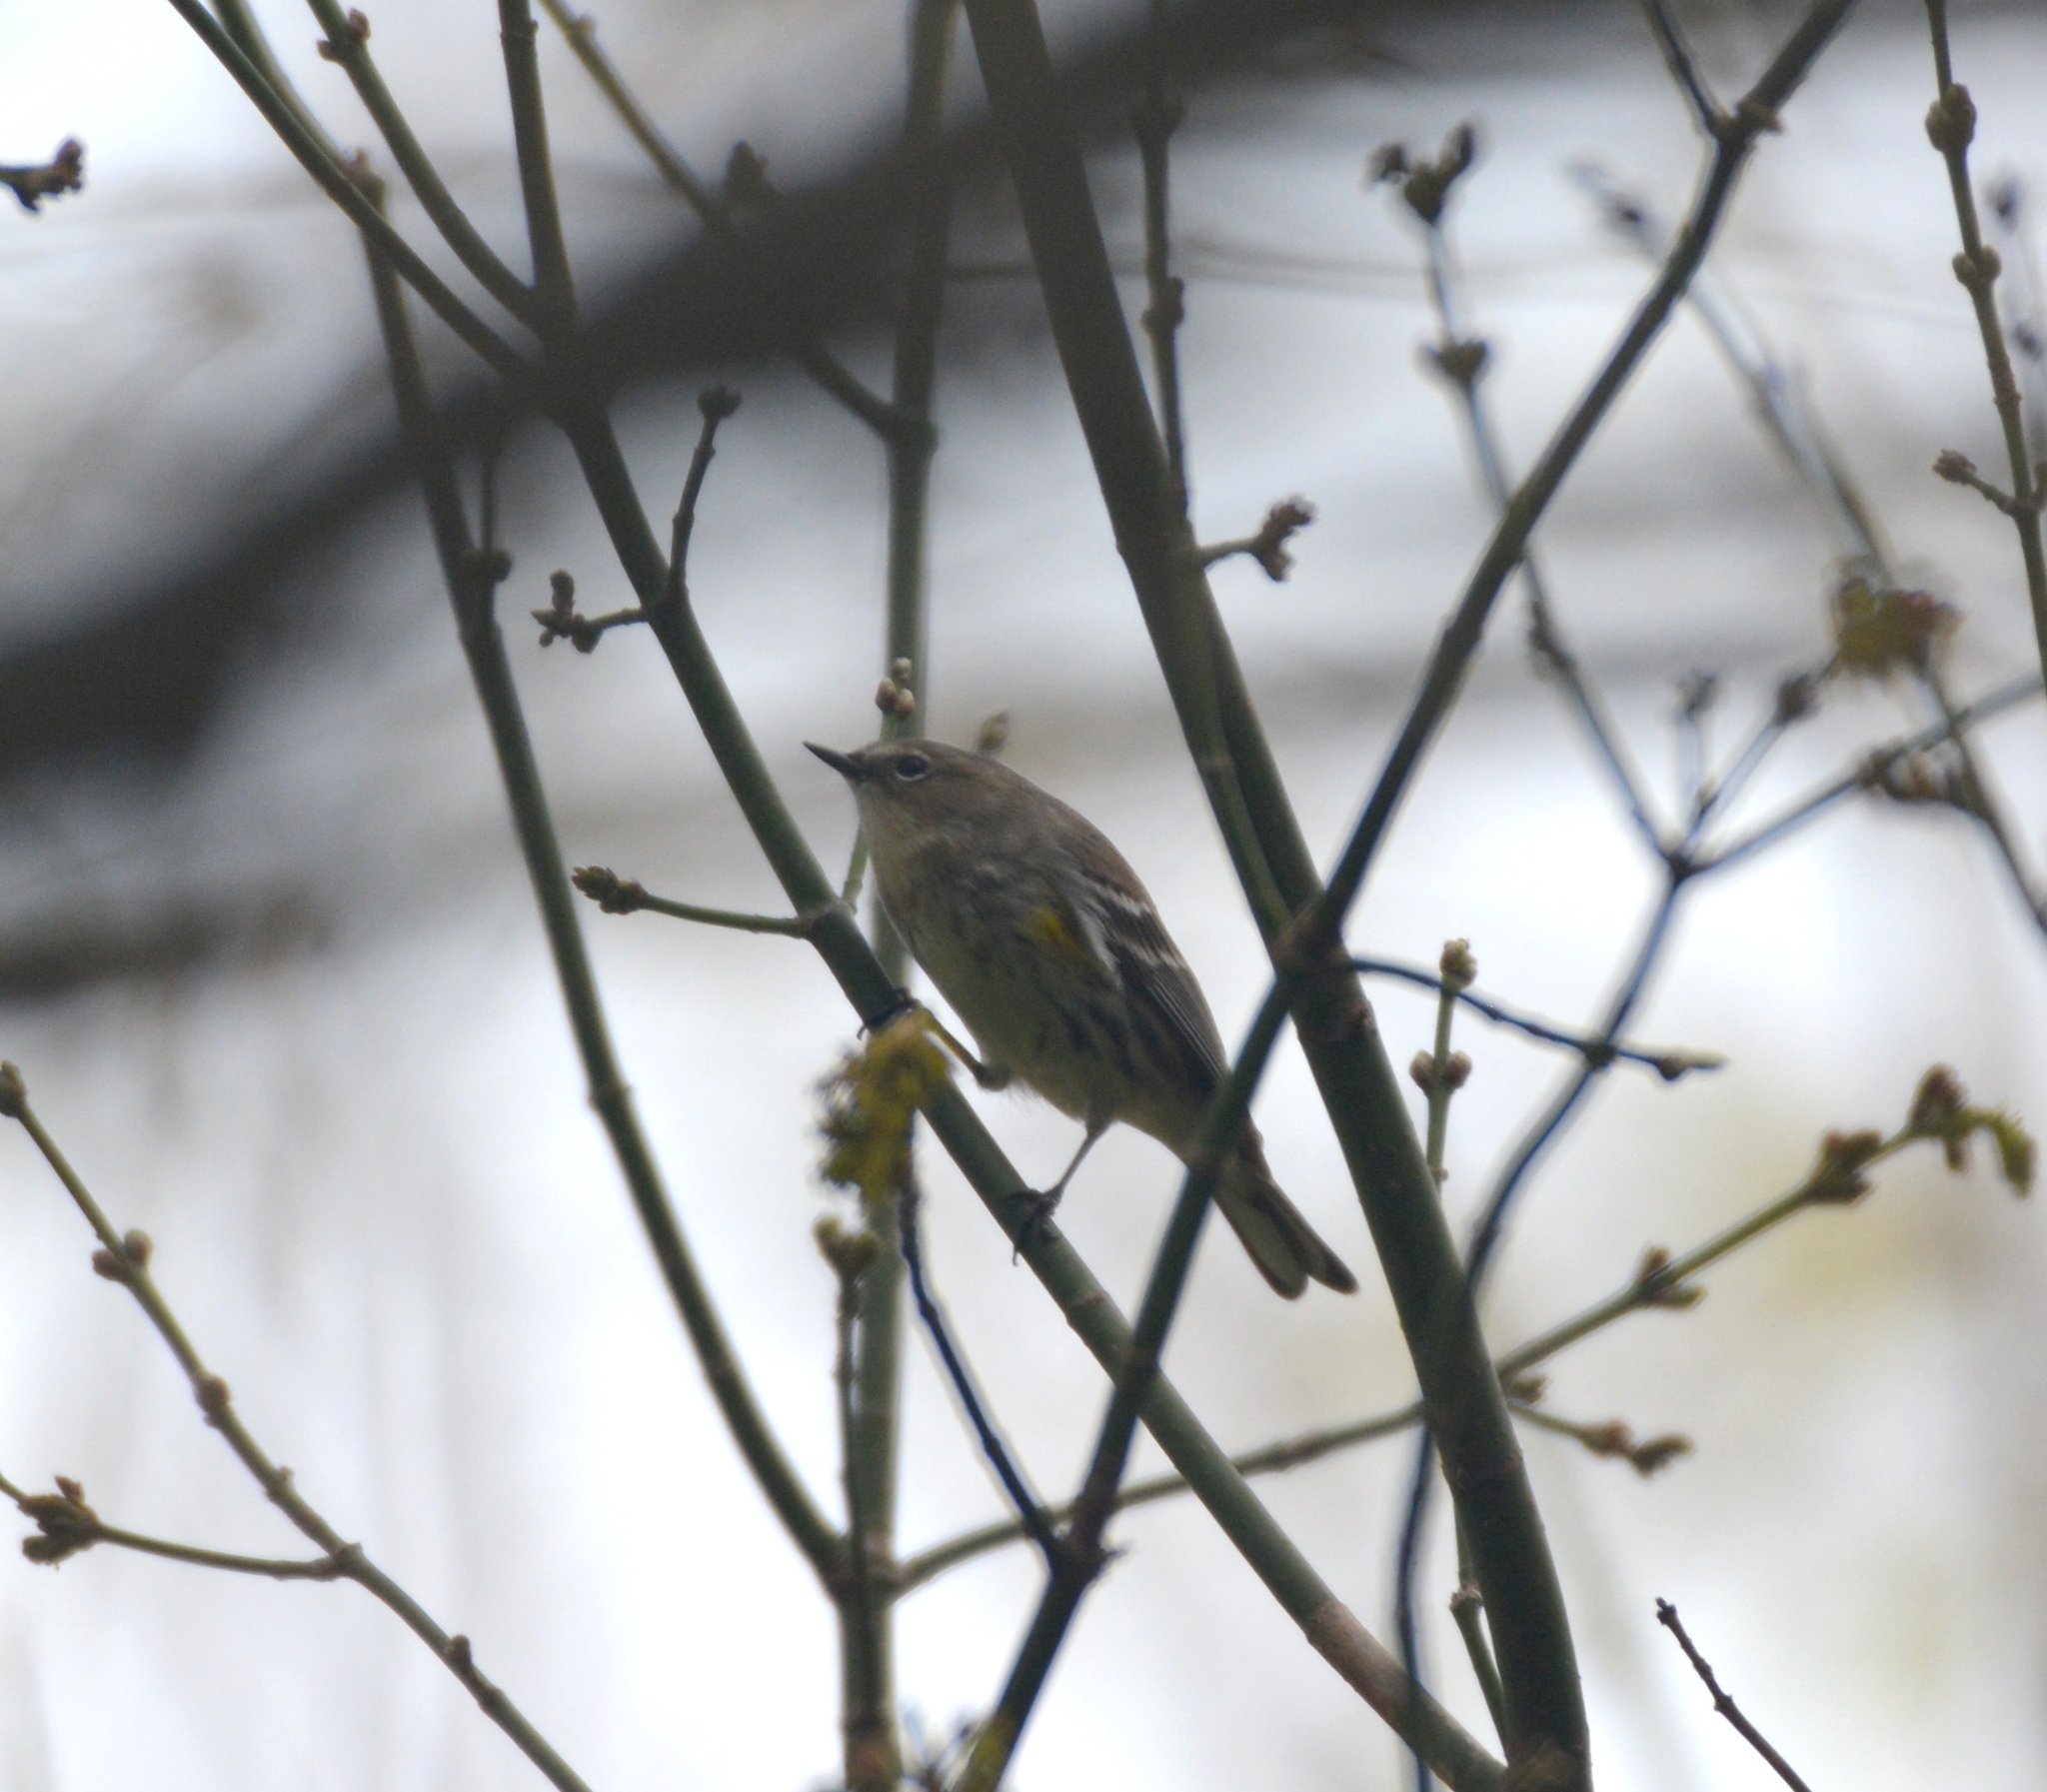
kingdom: Animalia
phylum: Chordata
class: Aves
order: Passeriformes
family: Parulidae
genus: Setophaga
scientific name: Setophaga coronata
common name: Myrtle warbler
